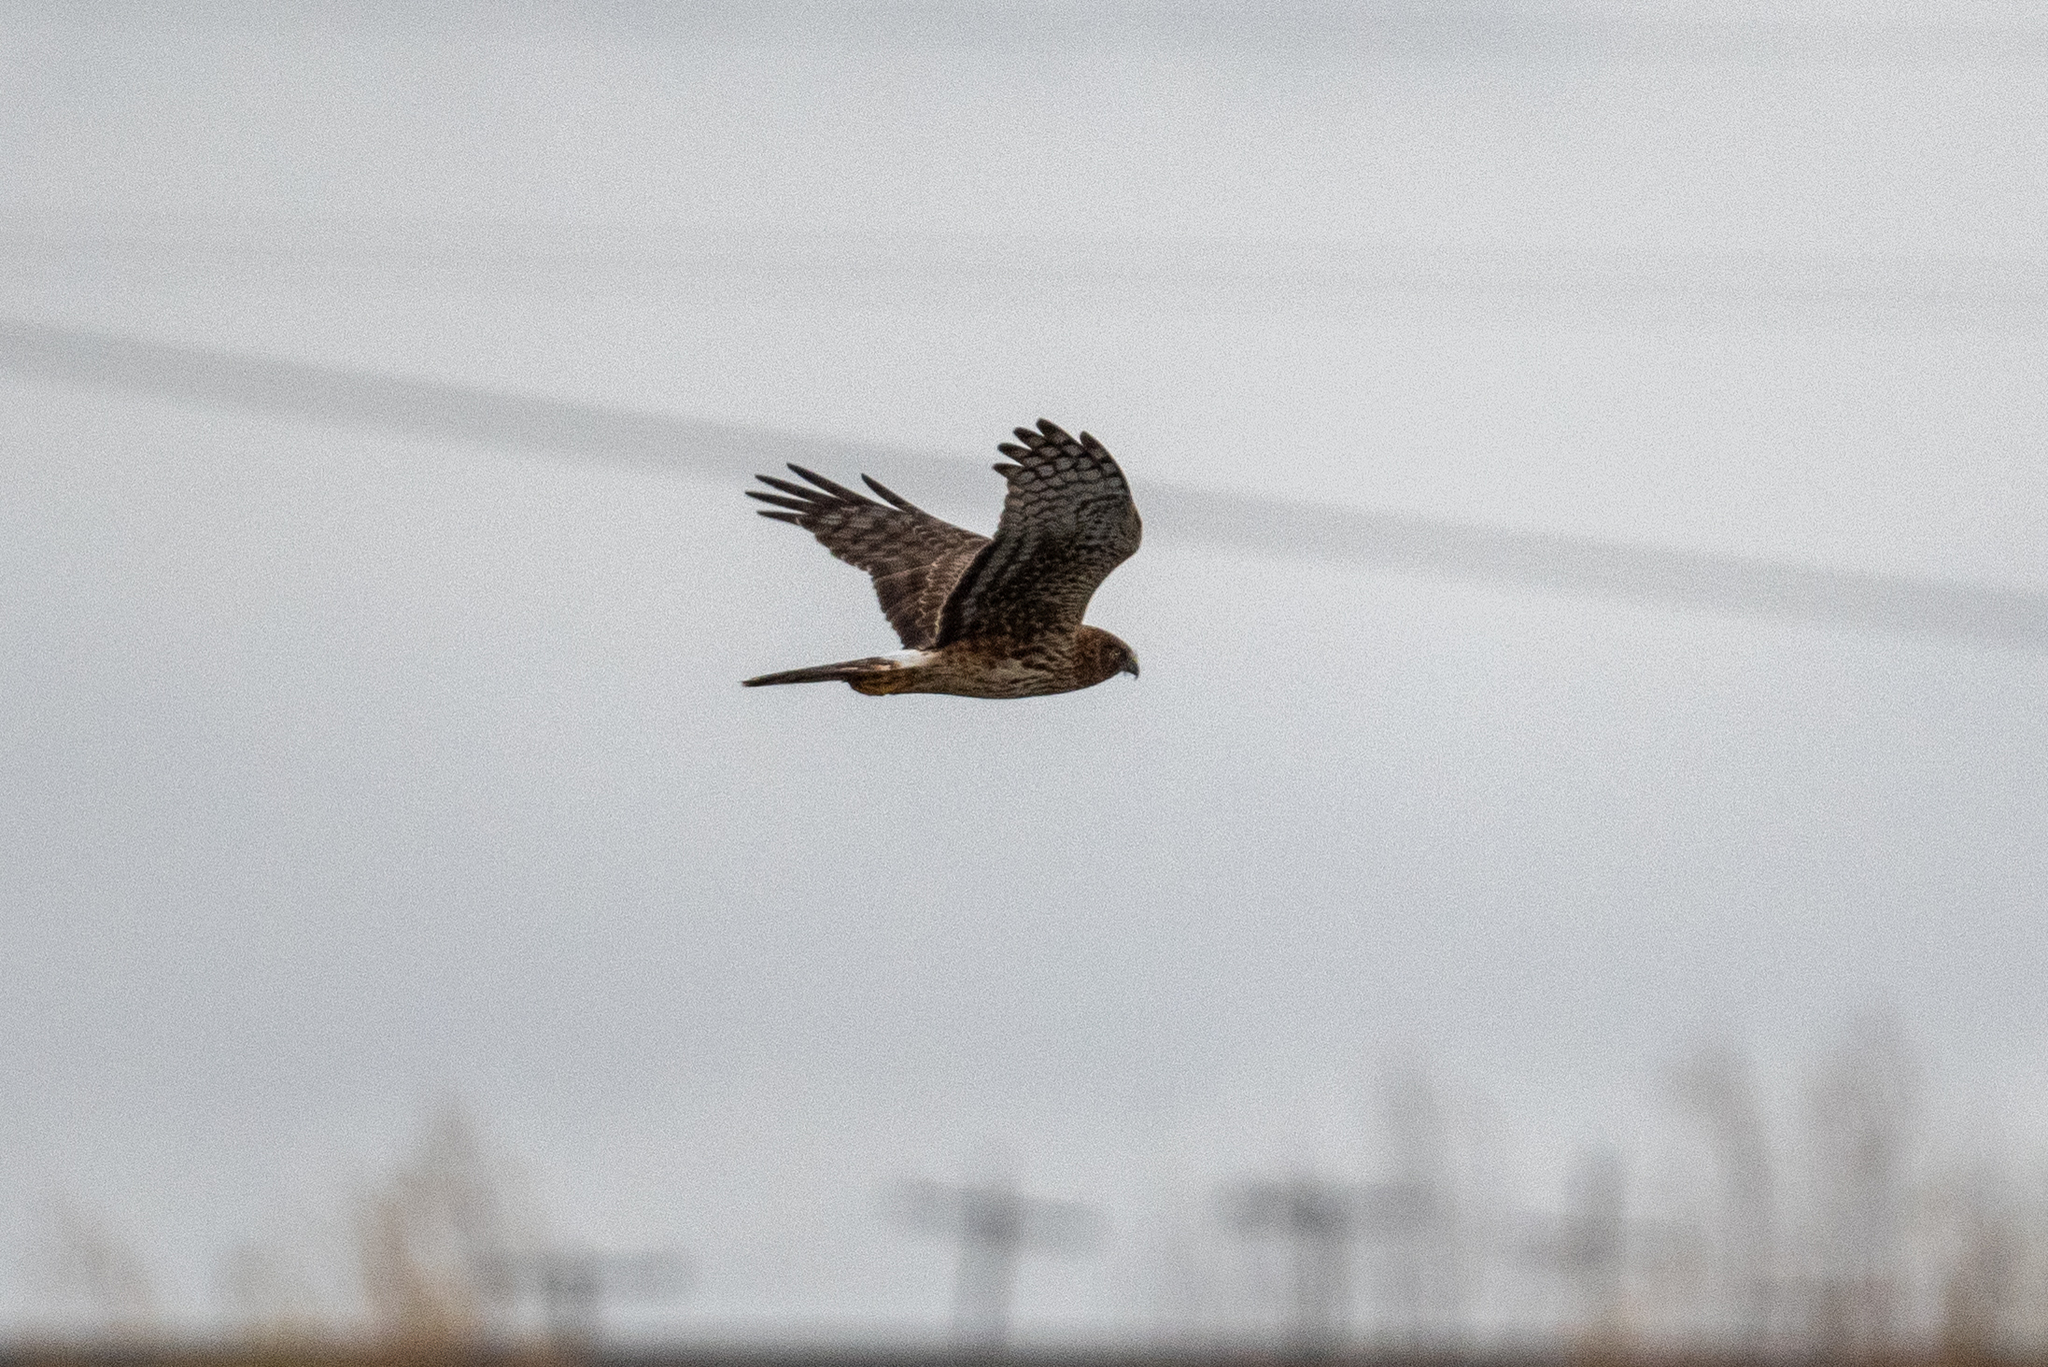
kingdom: Animalia
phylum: Chordata
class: Aves
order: Accipitriformes
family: Accipitridae
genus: Circus
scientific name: Circus cyaneus
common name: Hen harrier
